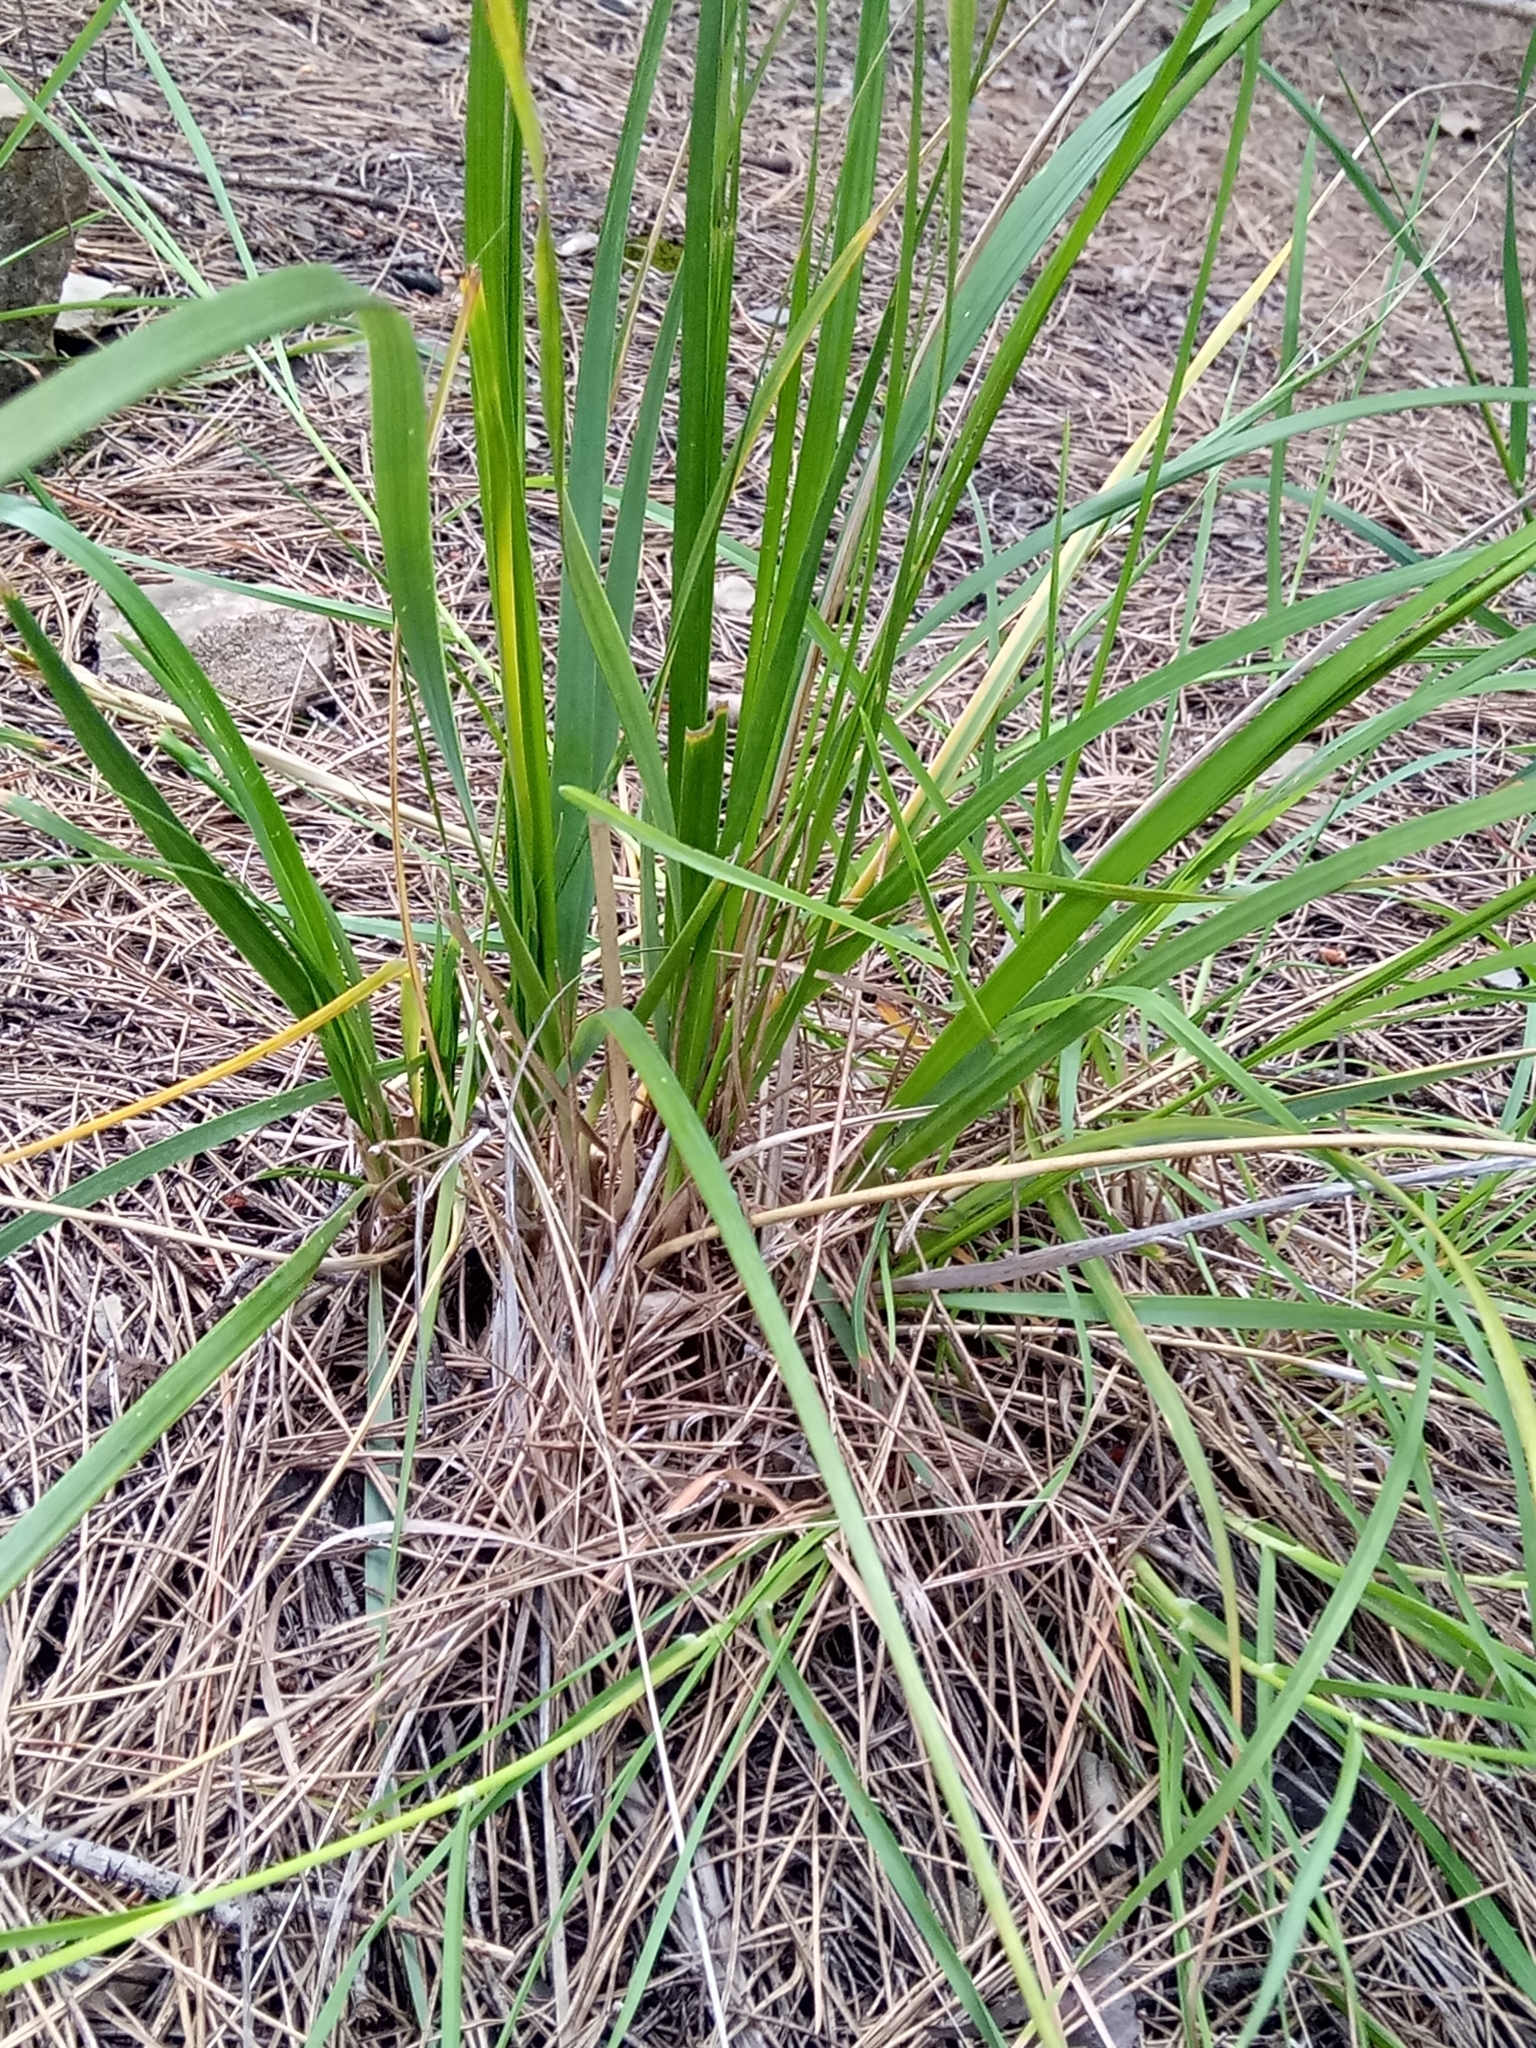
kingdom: Plantae
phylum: Tracheophyta
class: Liliopsida
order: Poales
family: Poaceae
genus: Ampelodesmos
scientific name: Ampelodesmos mauritanicus
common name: Mauritanian grass
